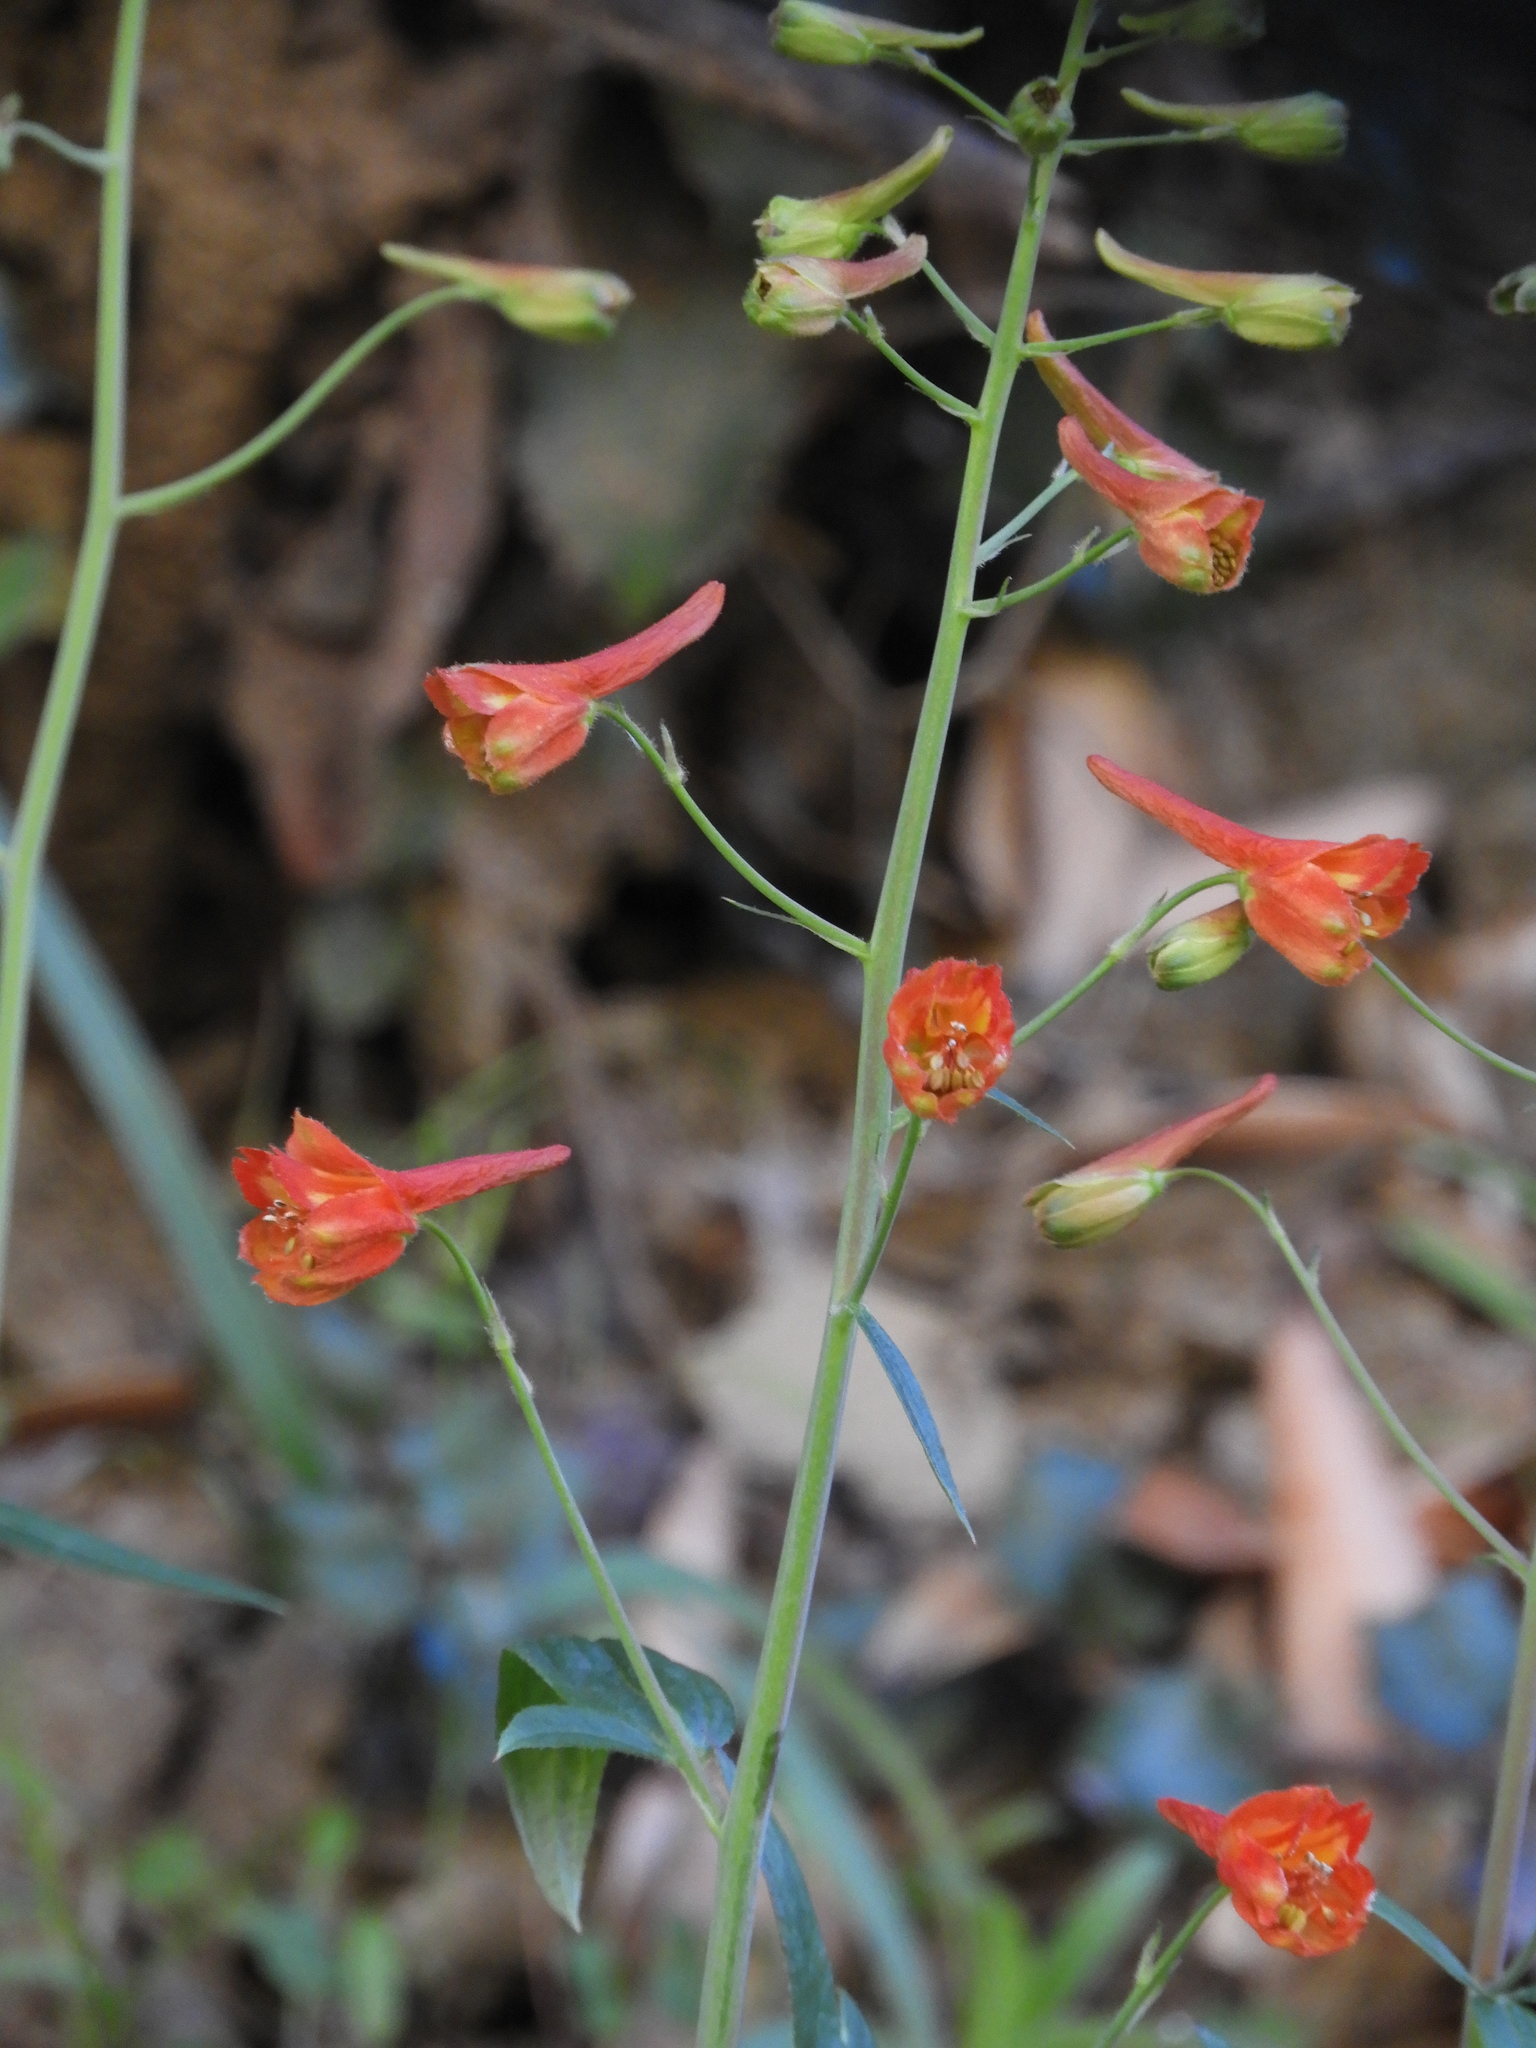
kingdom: Plantae
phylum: Tracheophyta
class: Magnoliopsida
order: Ranunculales
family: Ranunculaceae
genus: Delphinium
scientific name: Delphinium nudicaule
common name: Red larkspur
